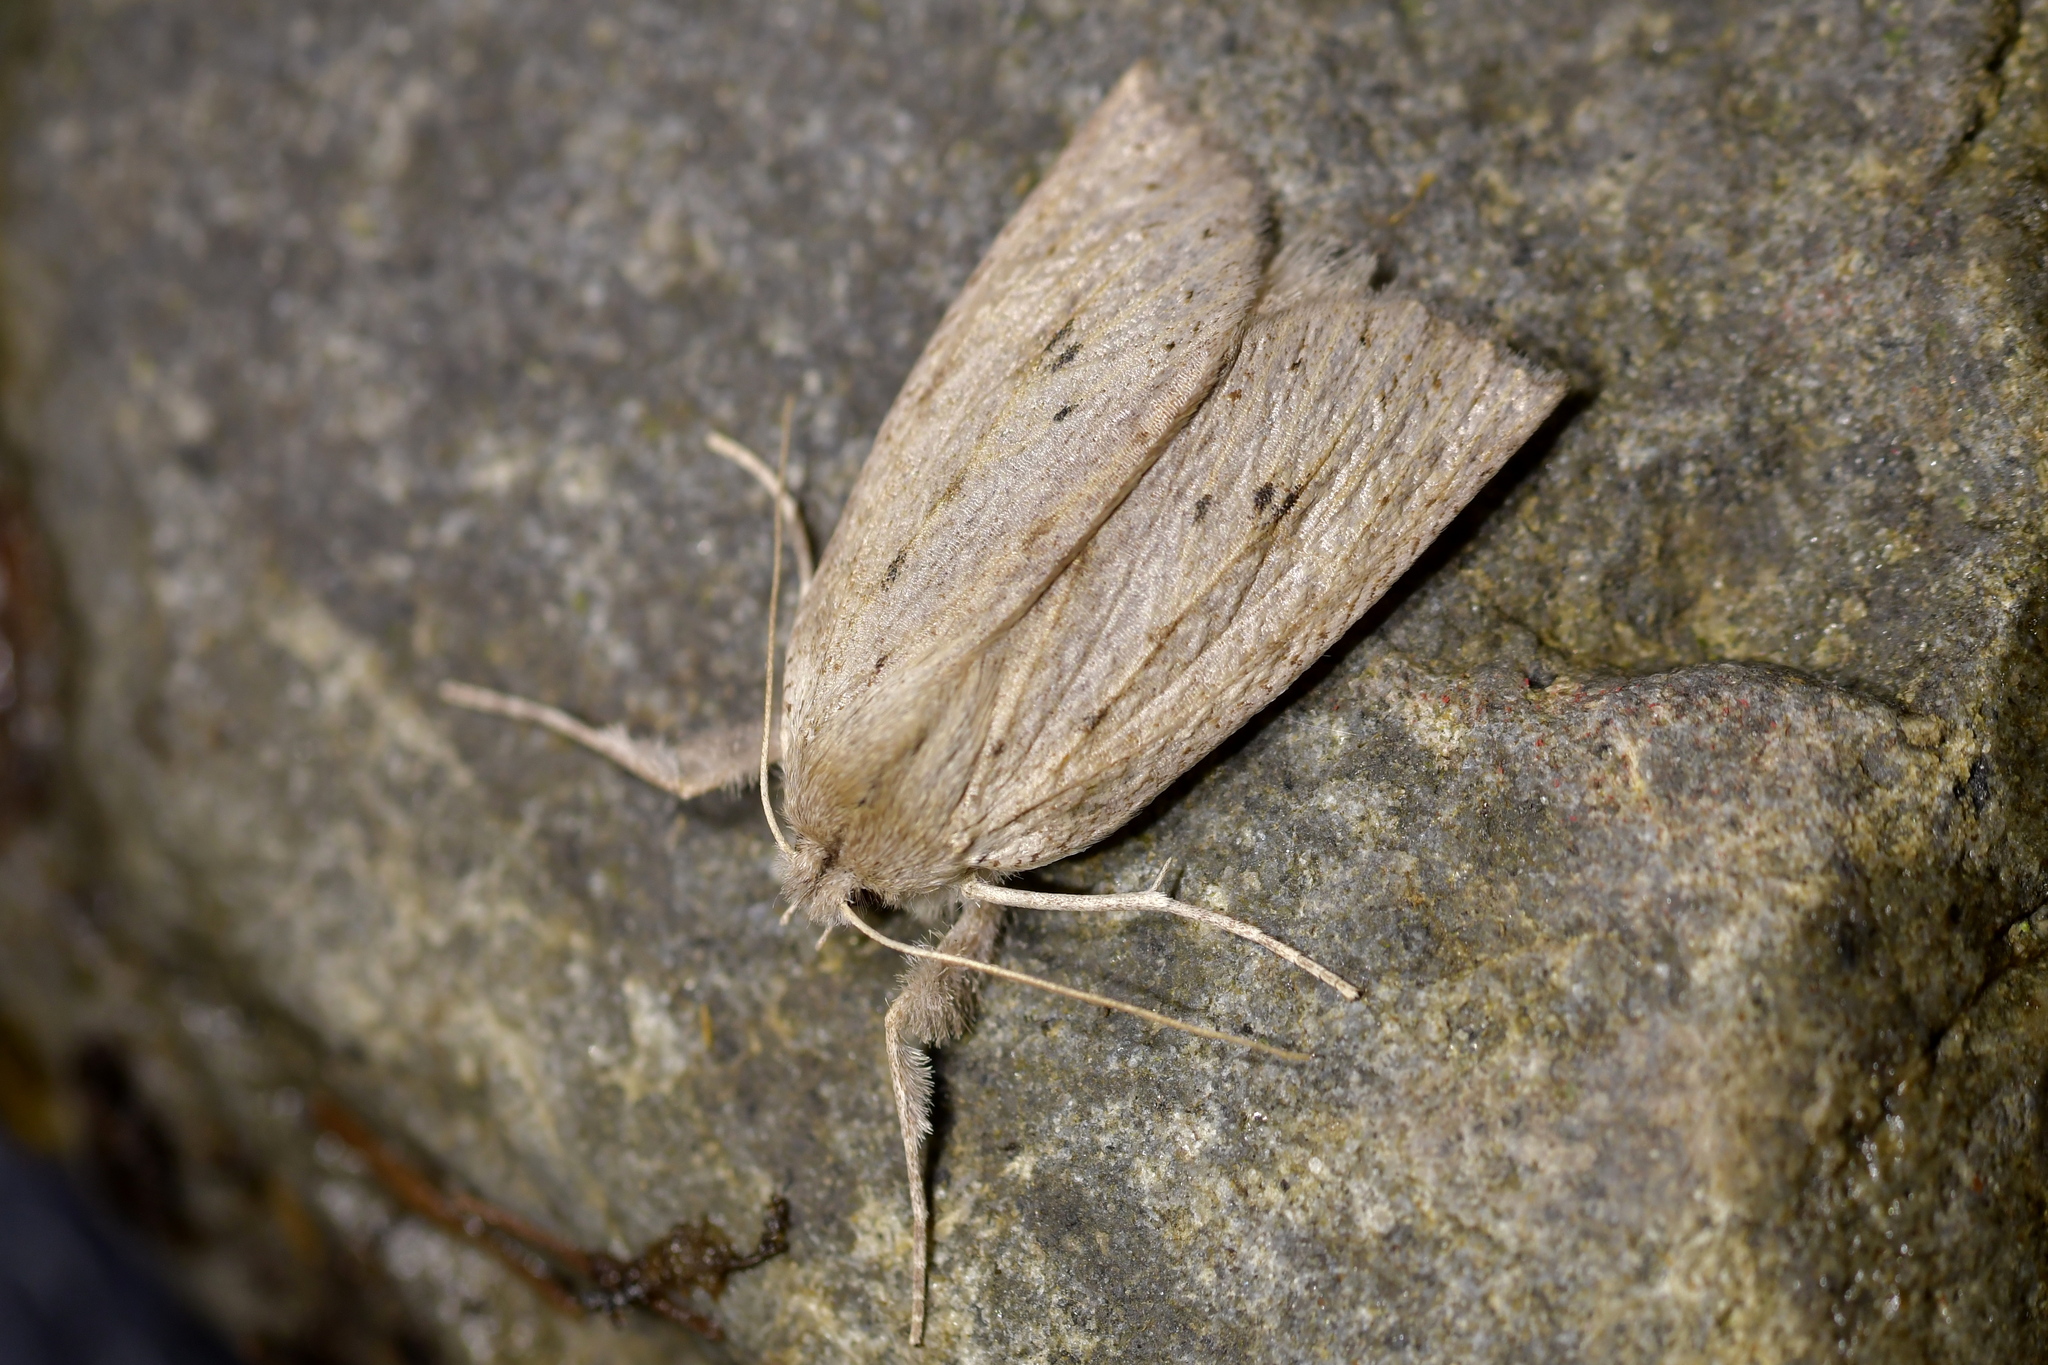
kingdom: Animalia
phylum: Arthropoda
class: Insecta
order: Lepidoptera
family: Geometridae
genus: Declana
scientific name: Declana leptomera
